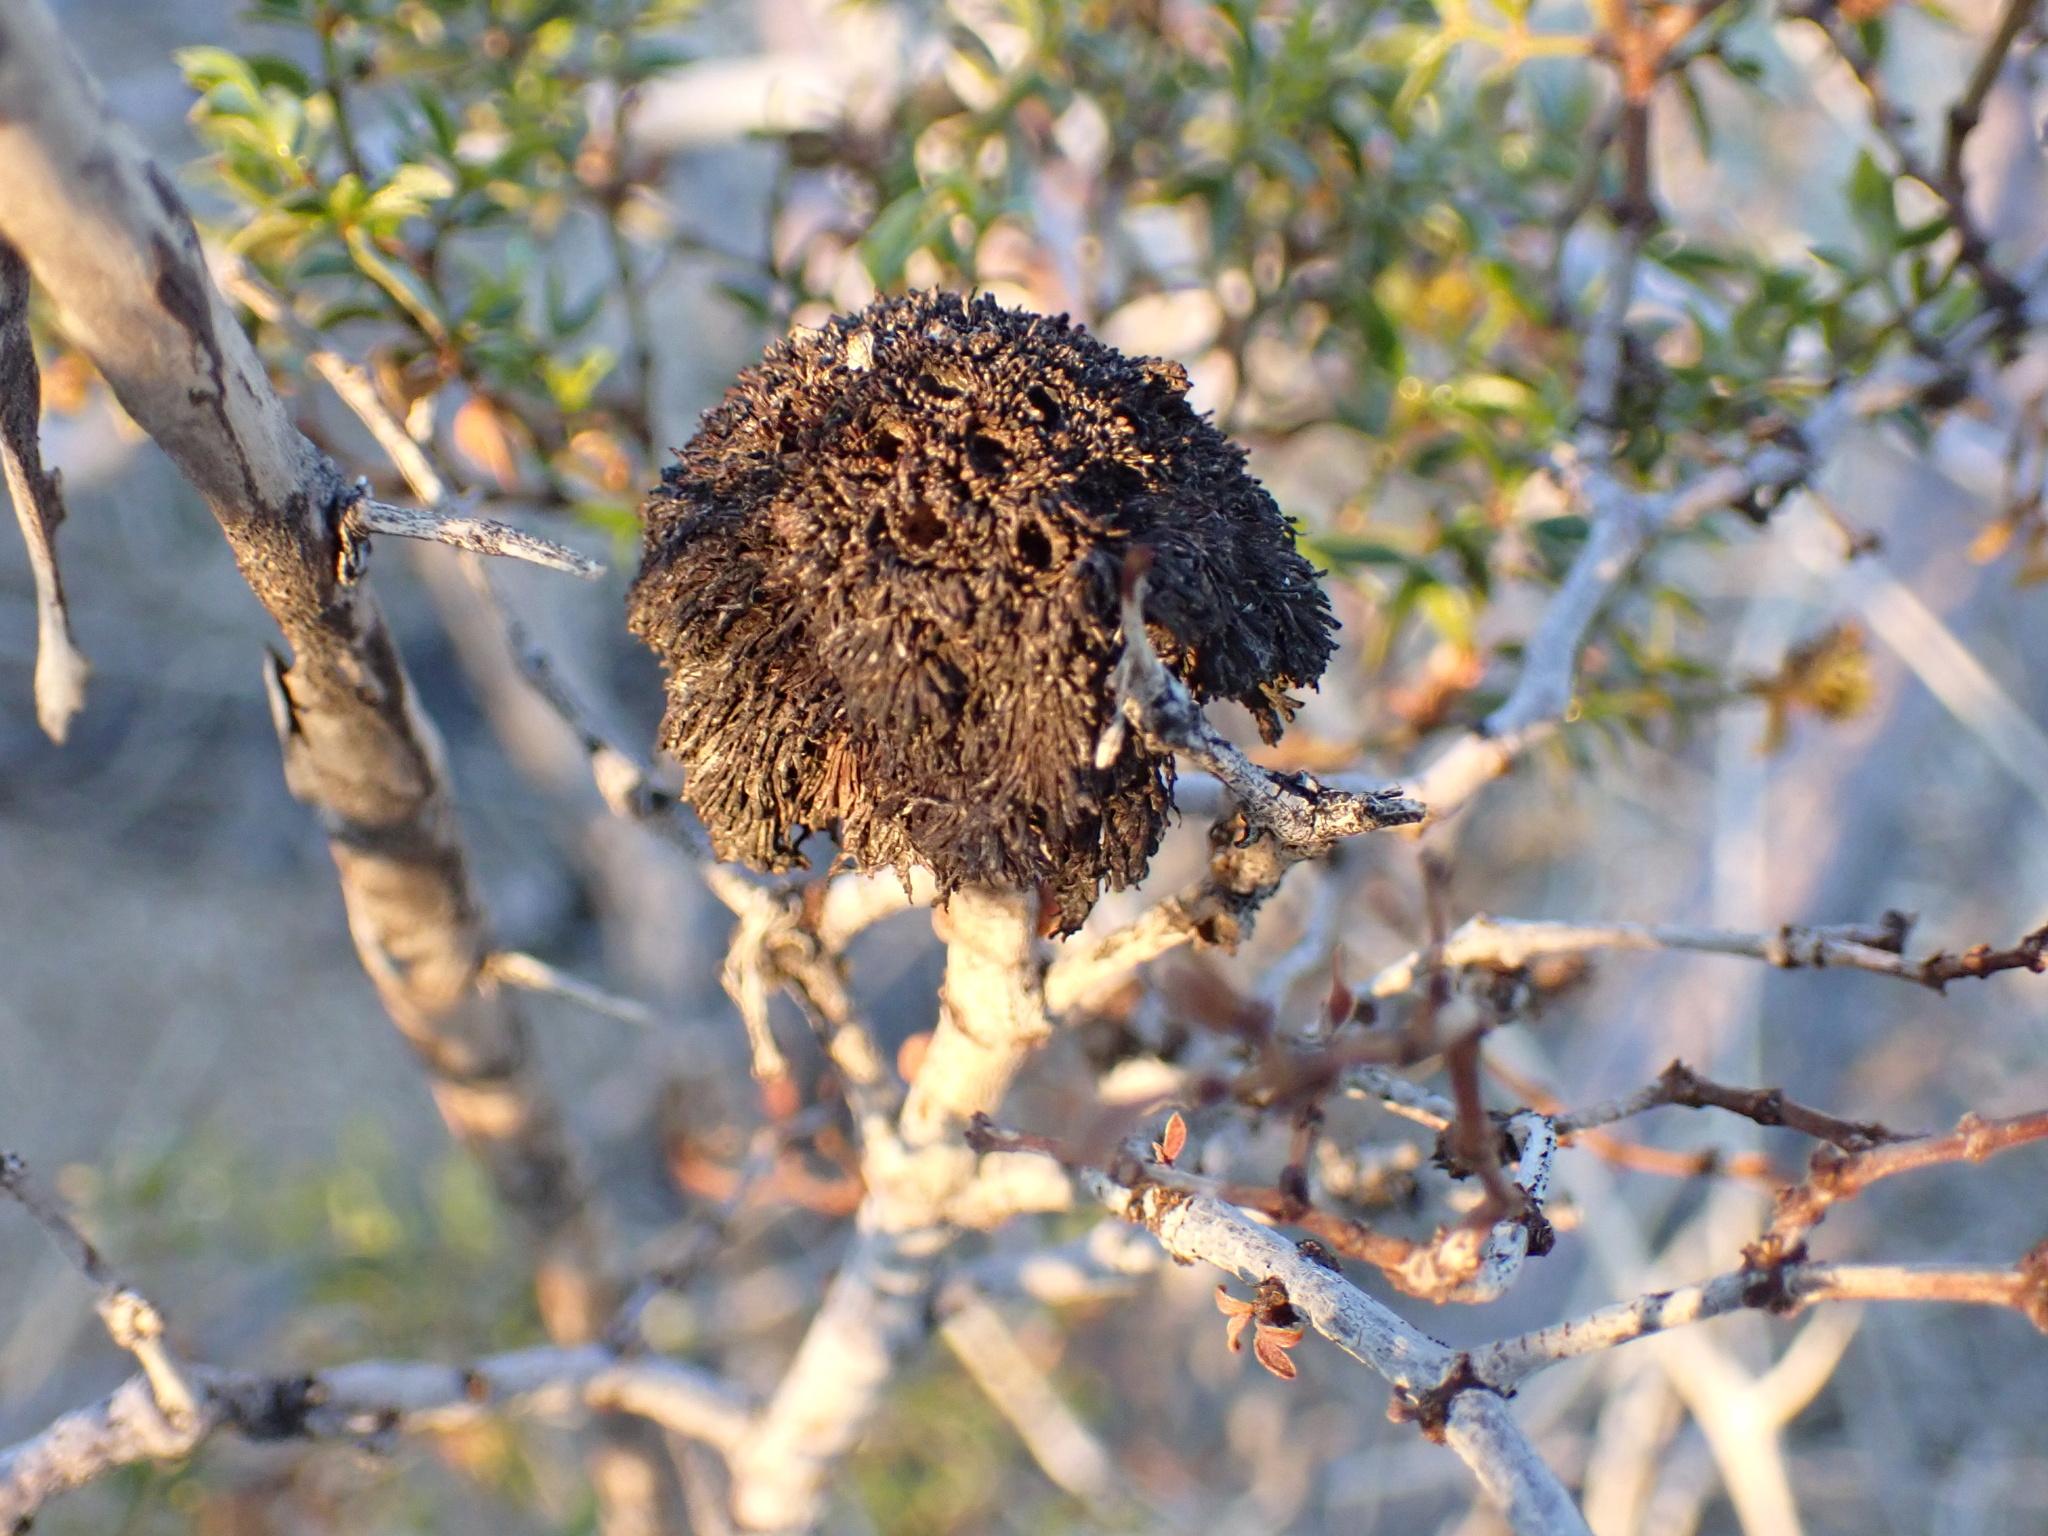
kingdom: Animalia
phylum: Arthropoda
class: Insecta
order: Diptera
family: Cecidomyiidae
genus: Asphondylia
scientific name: Asphondylia auripila
